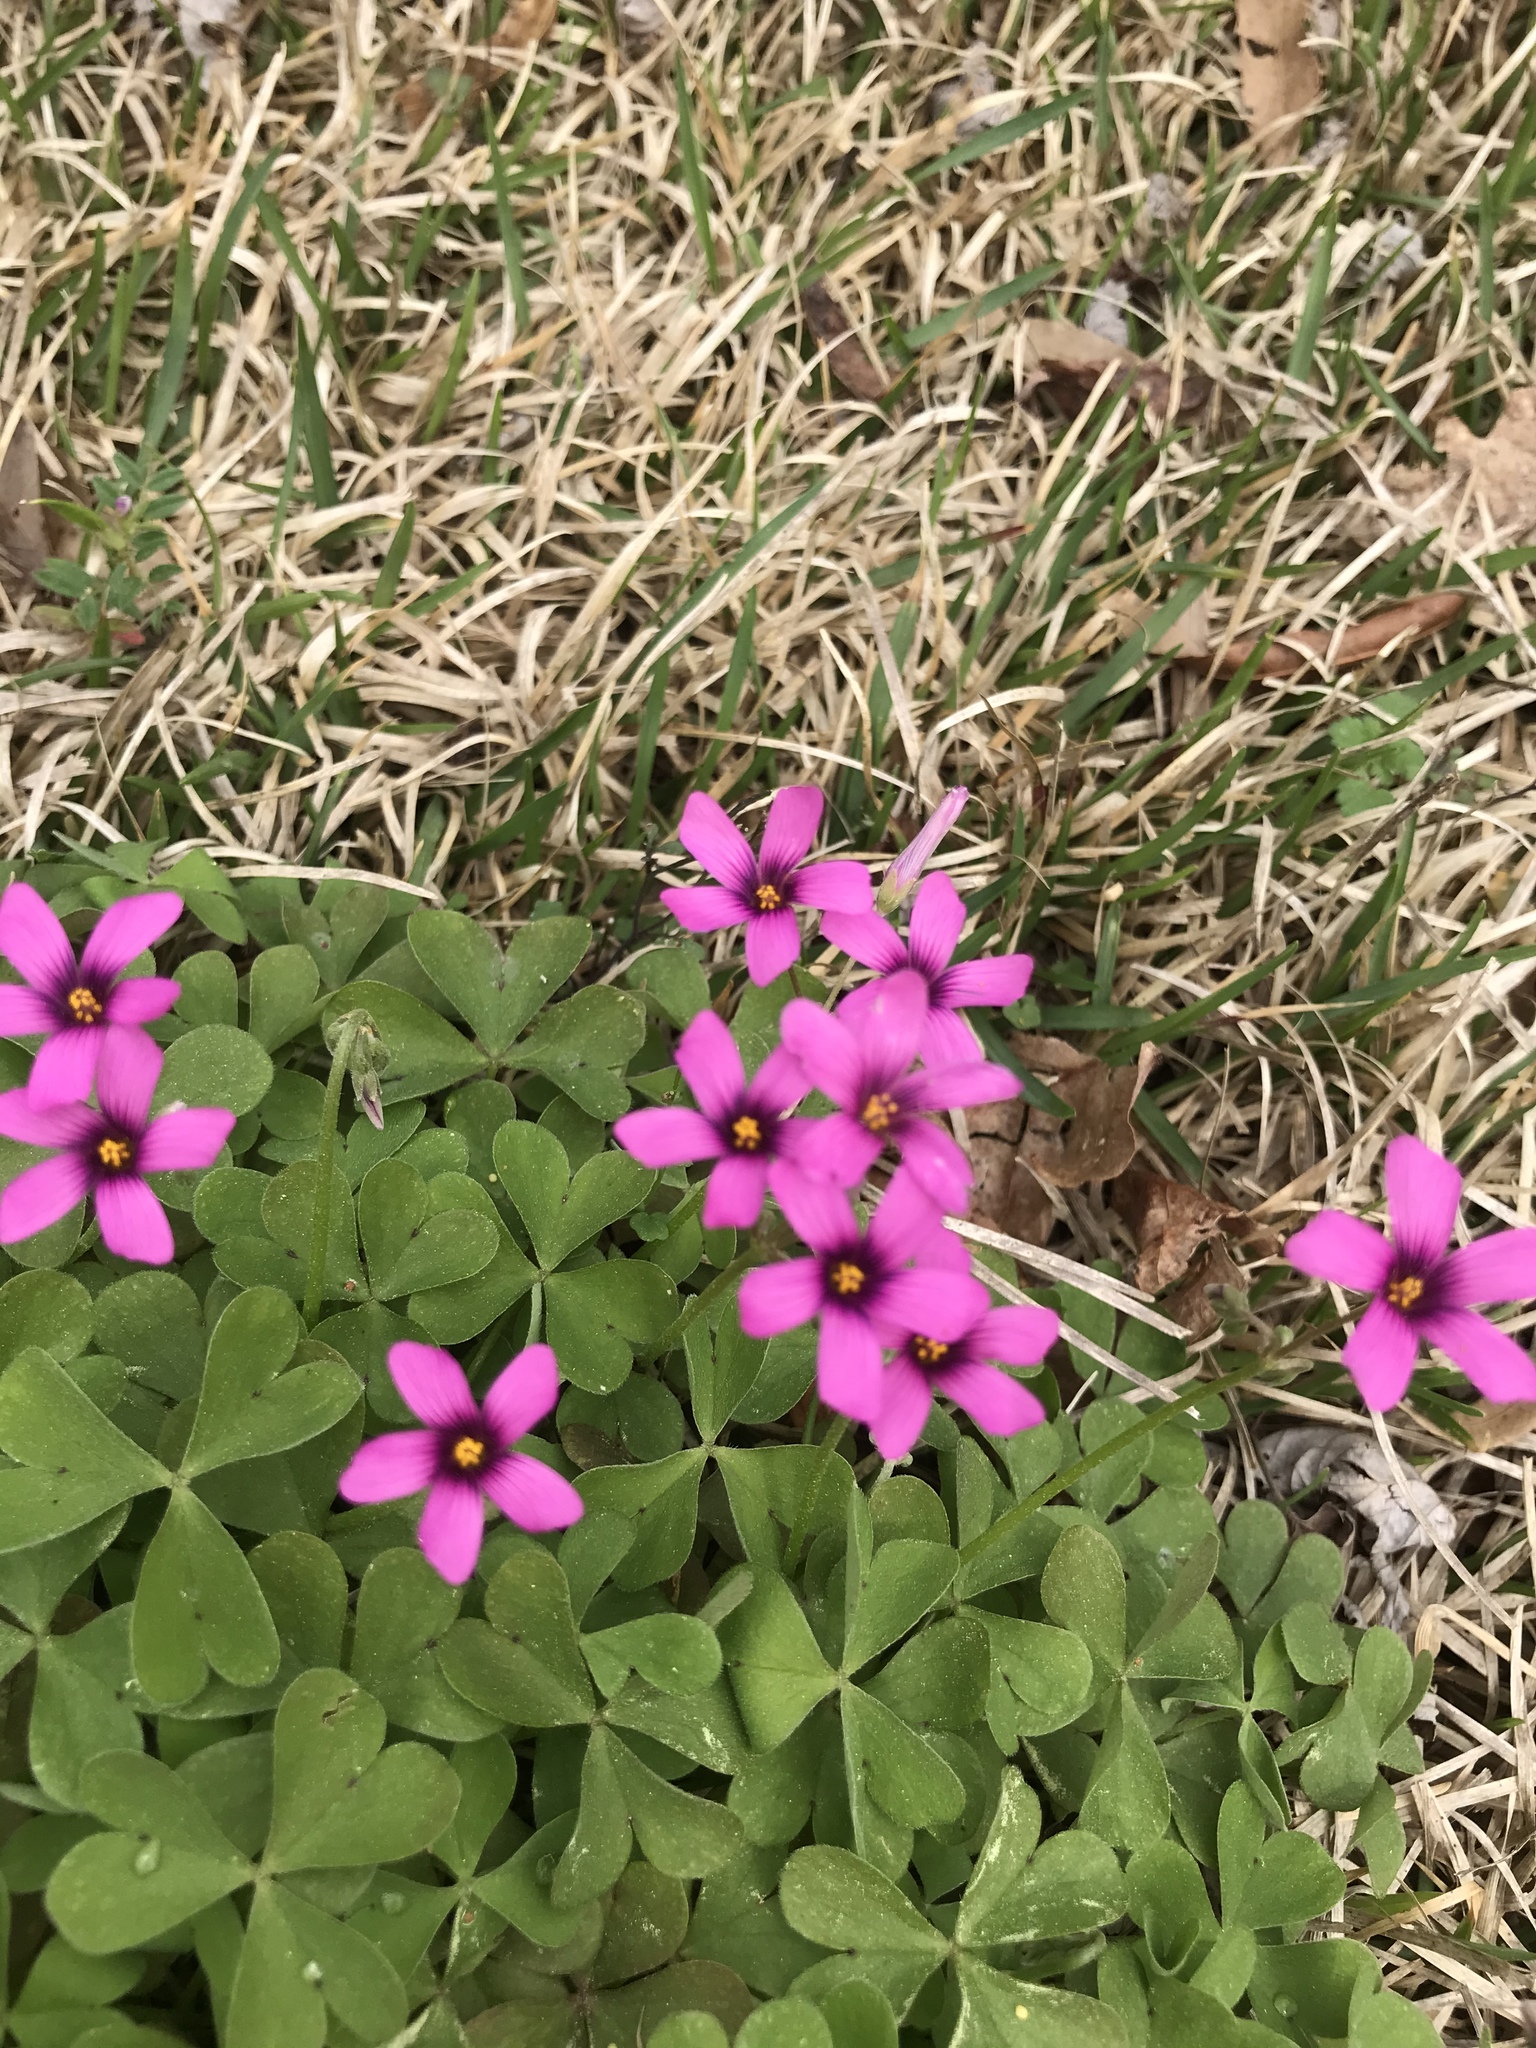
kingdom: Plantae
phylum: Tracheophyta
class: Magnoliopsida
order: Oxalidales
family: Oxalidaceae
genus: Oxalis
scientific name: Oxalis articulata
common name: Pink-sorrel
